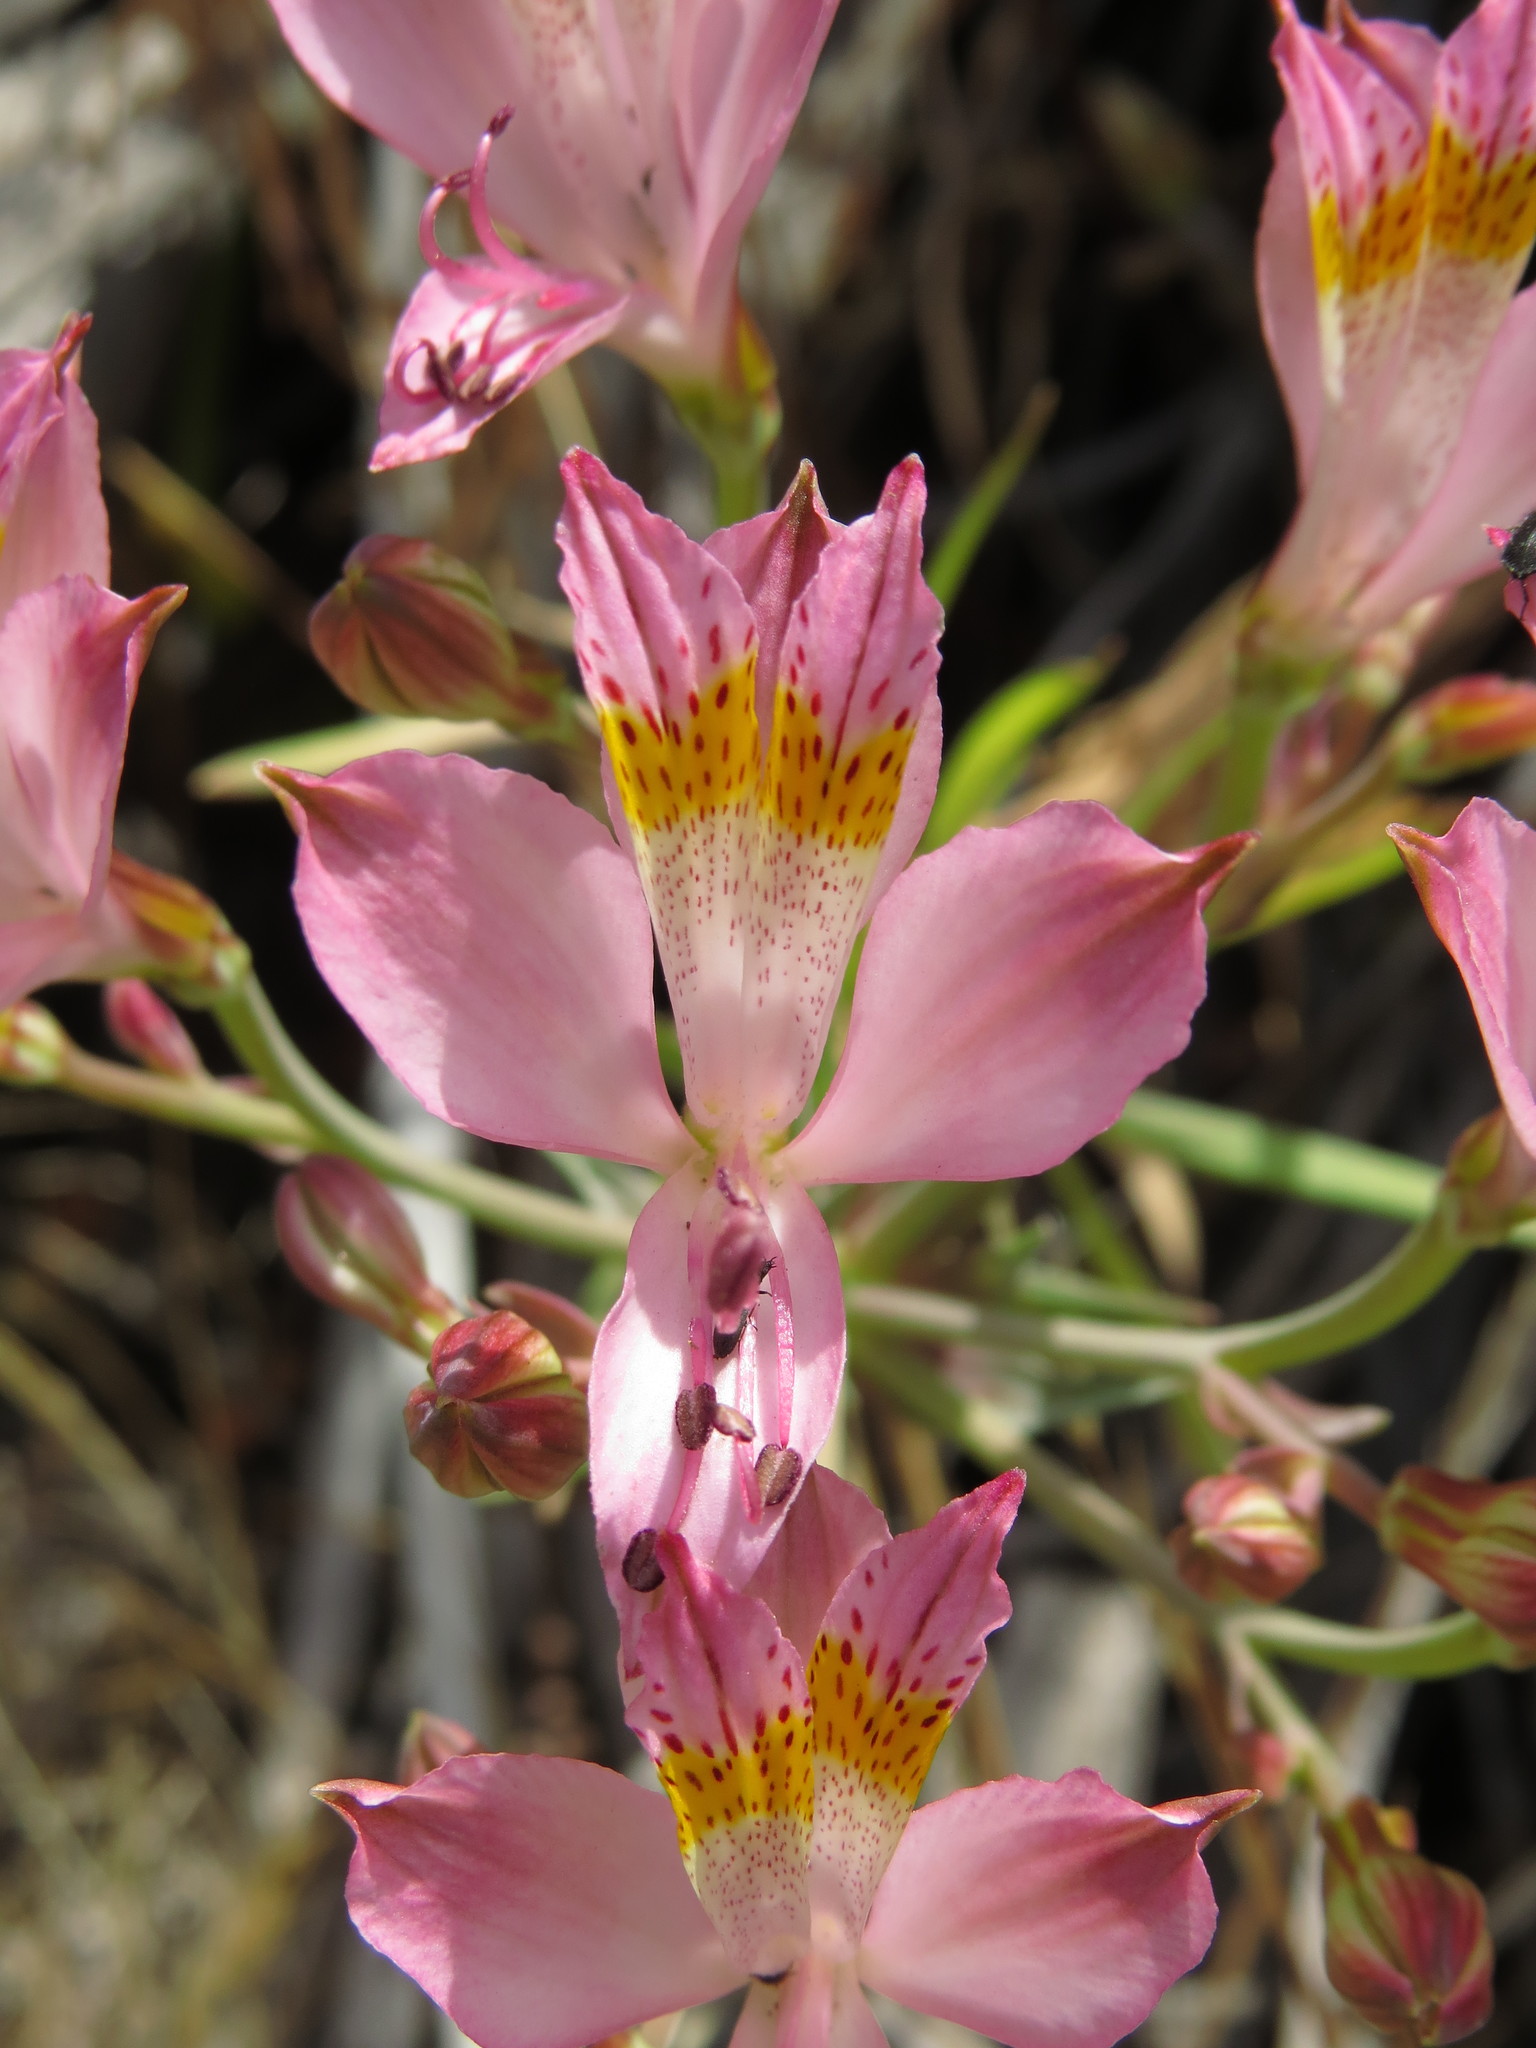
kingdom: Plantae
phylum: Tracheophyta
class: Liliopsida
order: Liliales
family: Alstroemeriaceae
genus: Alstroemeria
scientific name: Alstroemeria angustifolia
